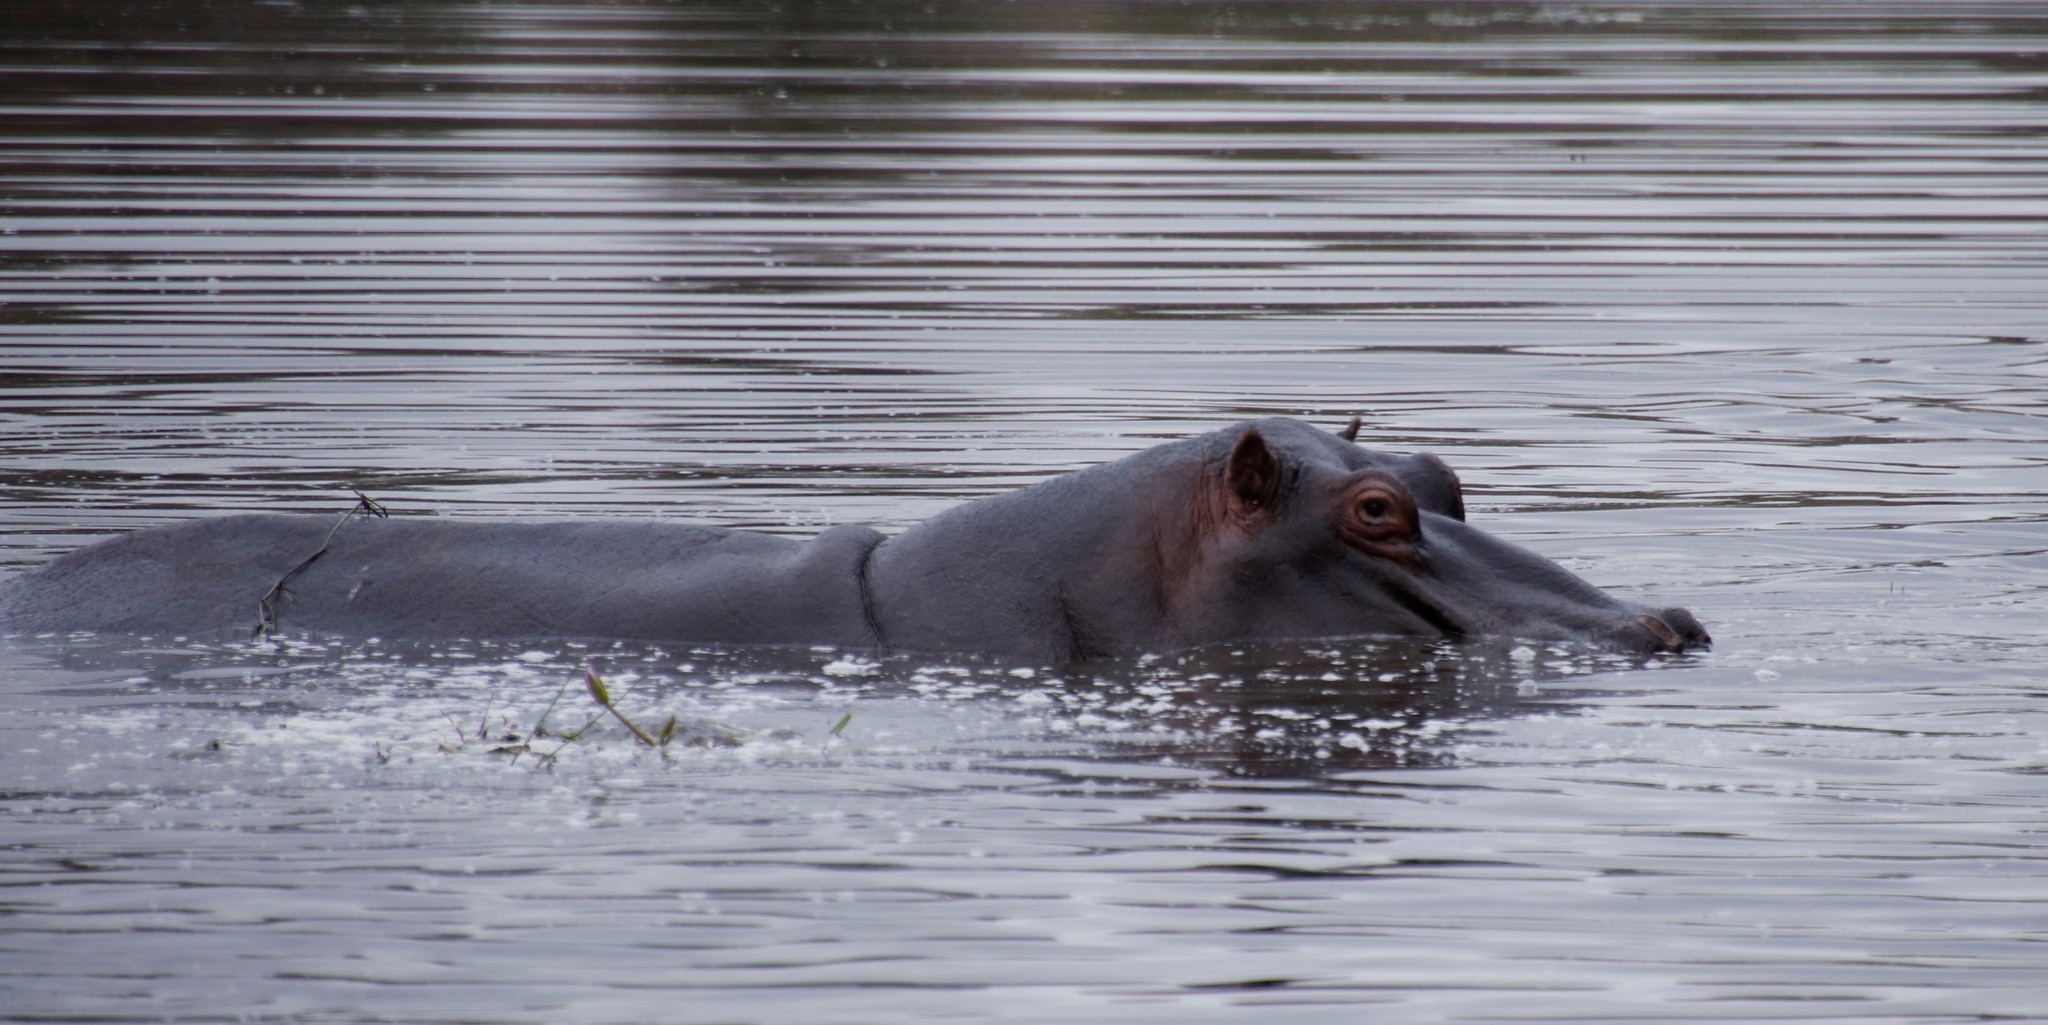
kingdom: Animalia
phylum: Chordata
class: Mammalia
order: Artiodactyla
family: Hippopotamidae
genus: Hippopotamus
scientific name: Hippopotamus amphibius
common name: Common hippopotamus
